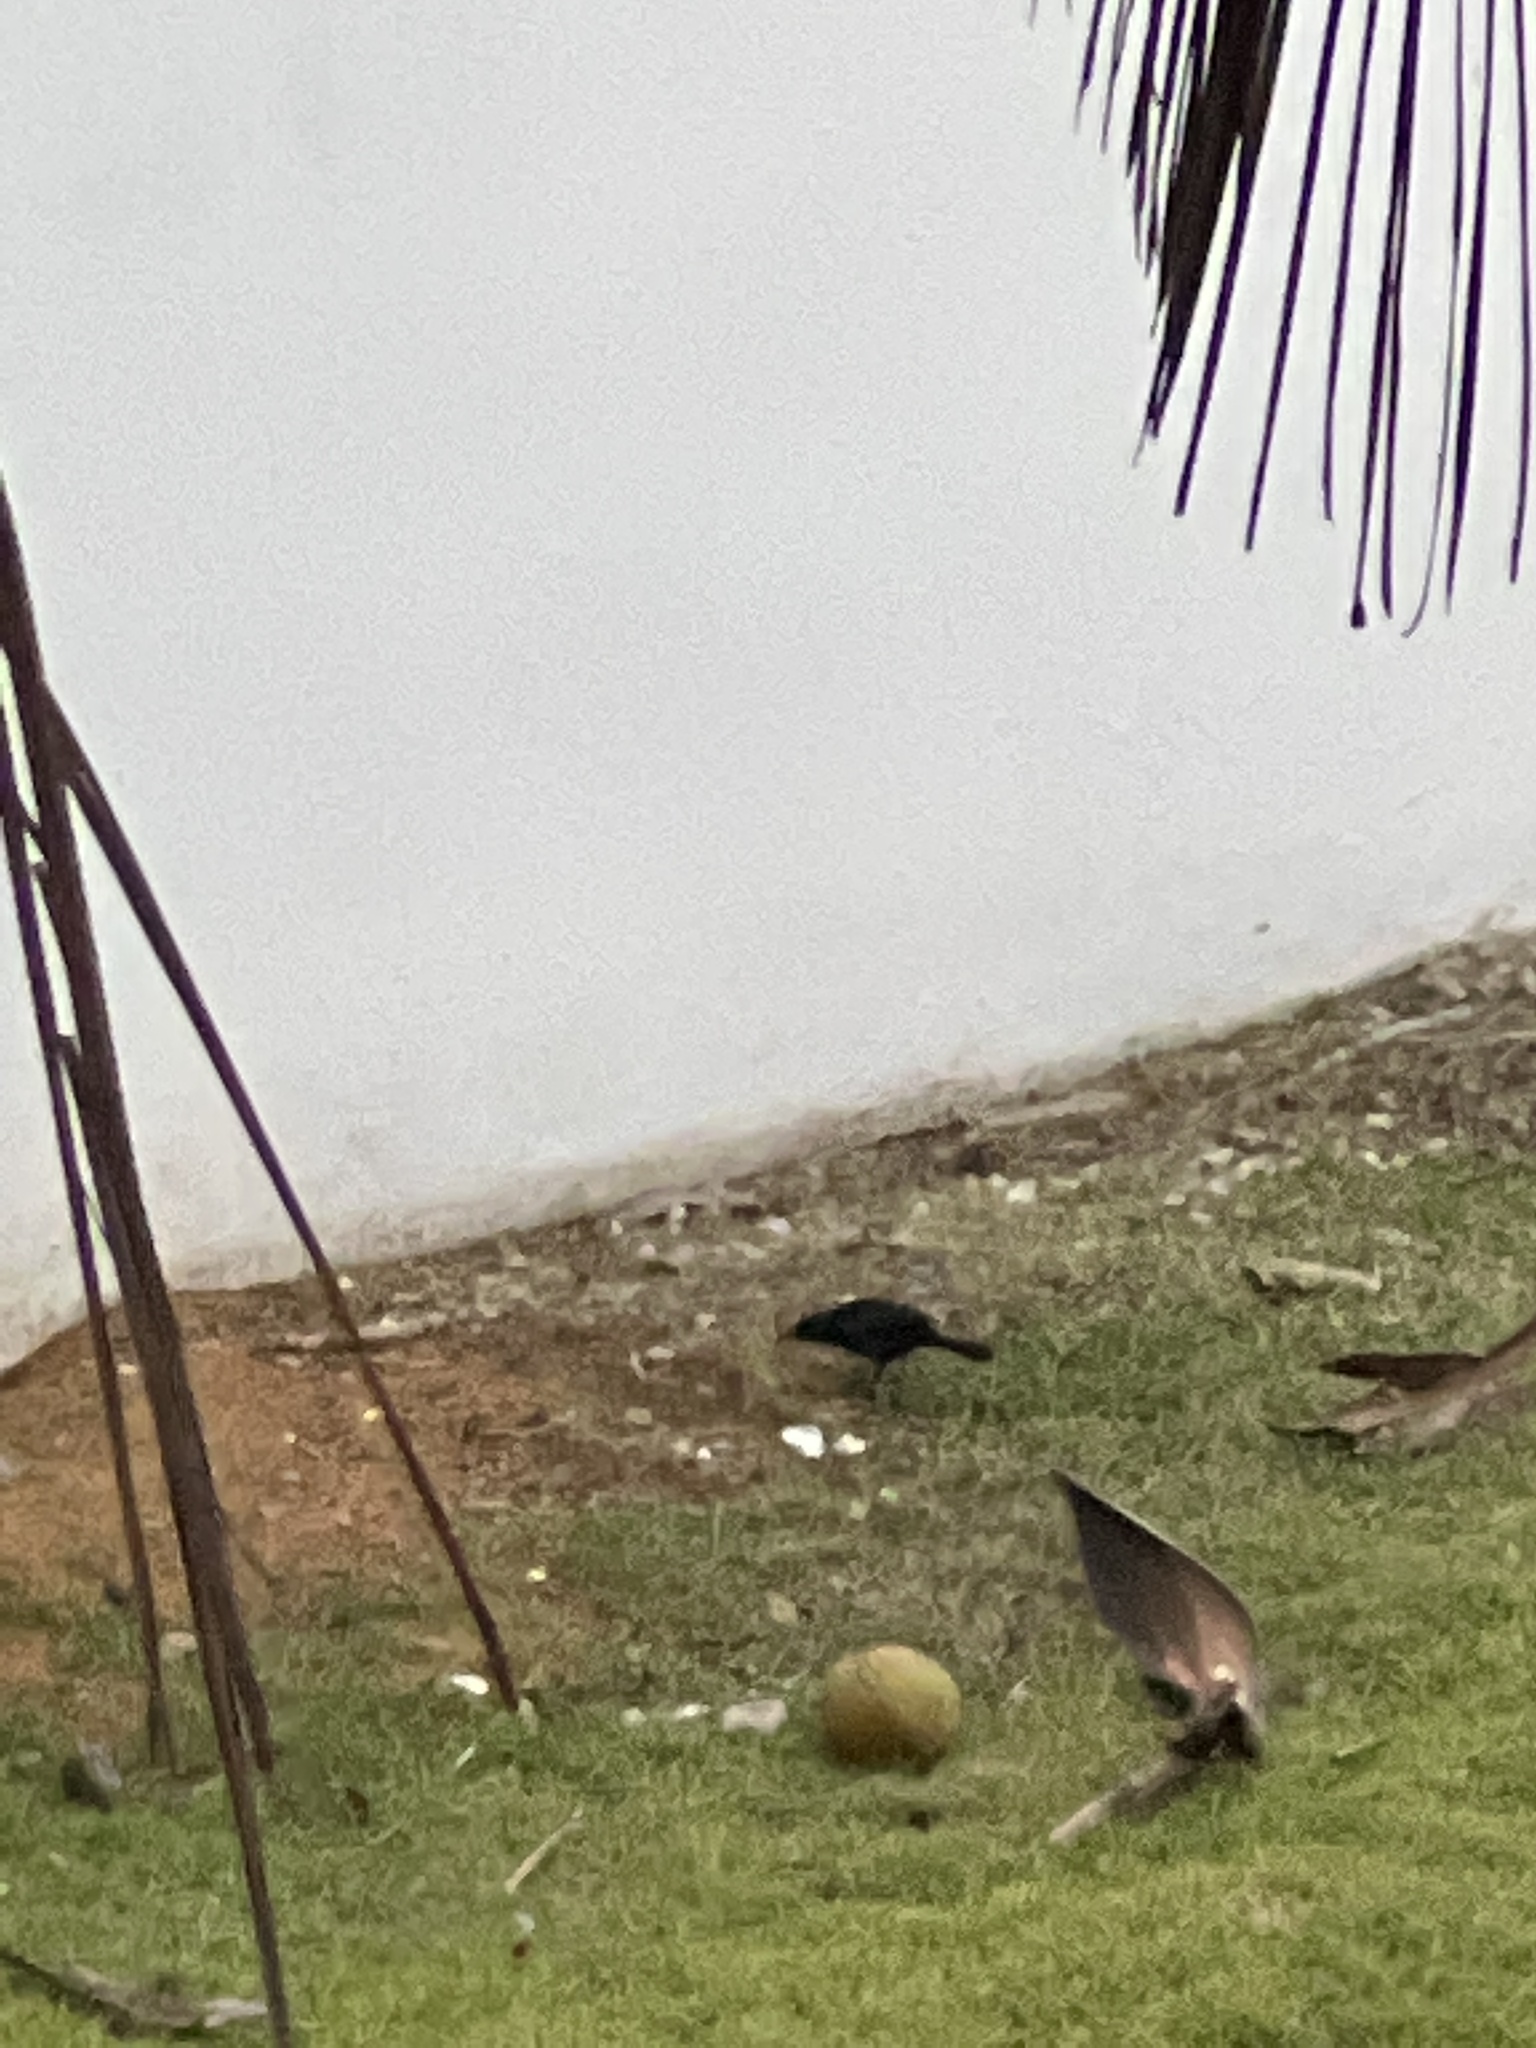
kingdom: Animalia
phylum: Chordata
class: Aves
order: Passeriformes
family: Icteridae
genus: Quiscalus
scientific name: Quiscalus niger
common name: Greater antillean grackle
